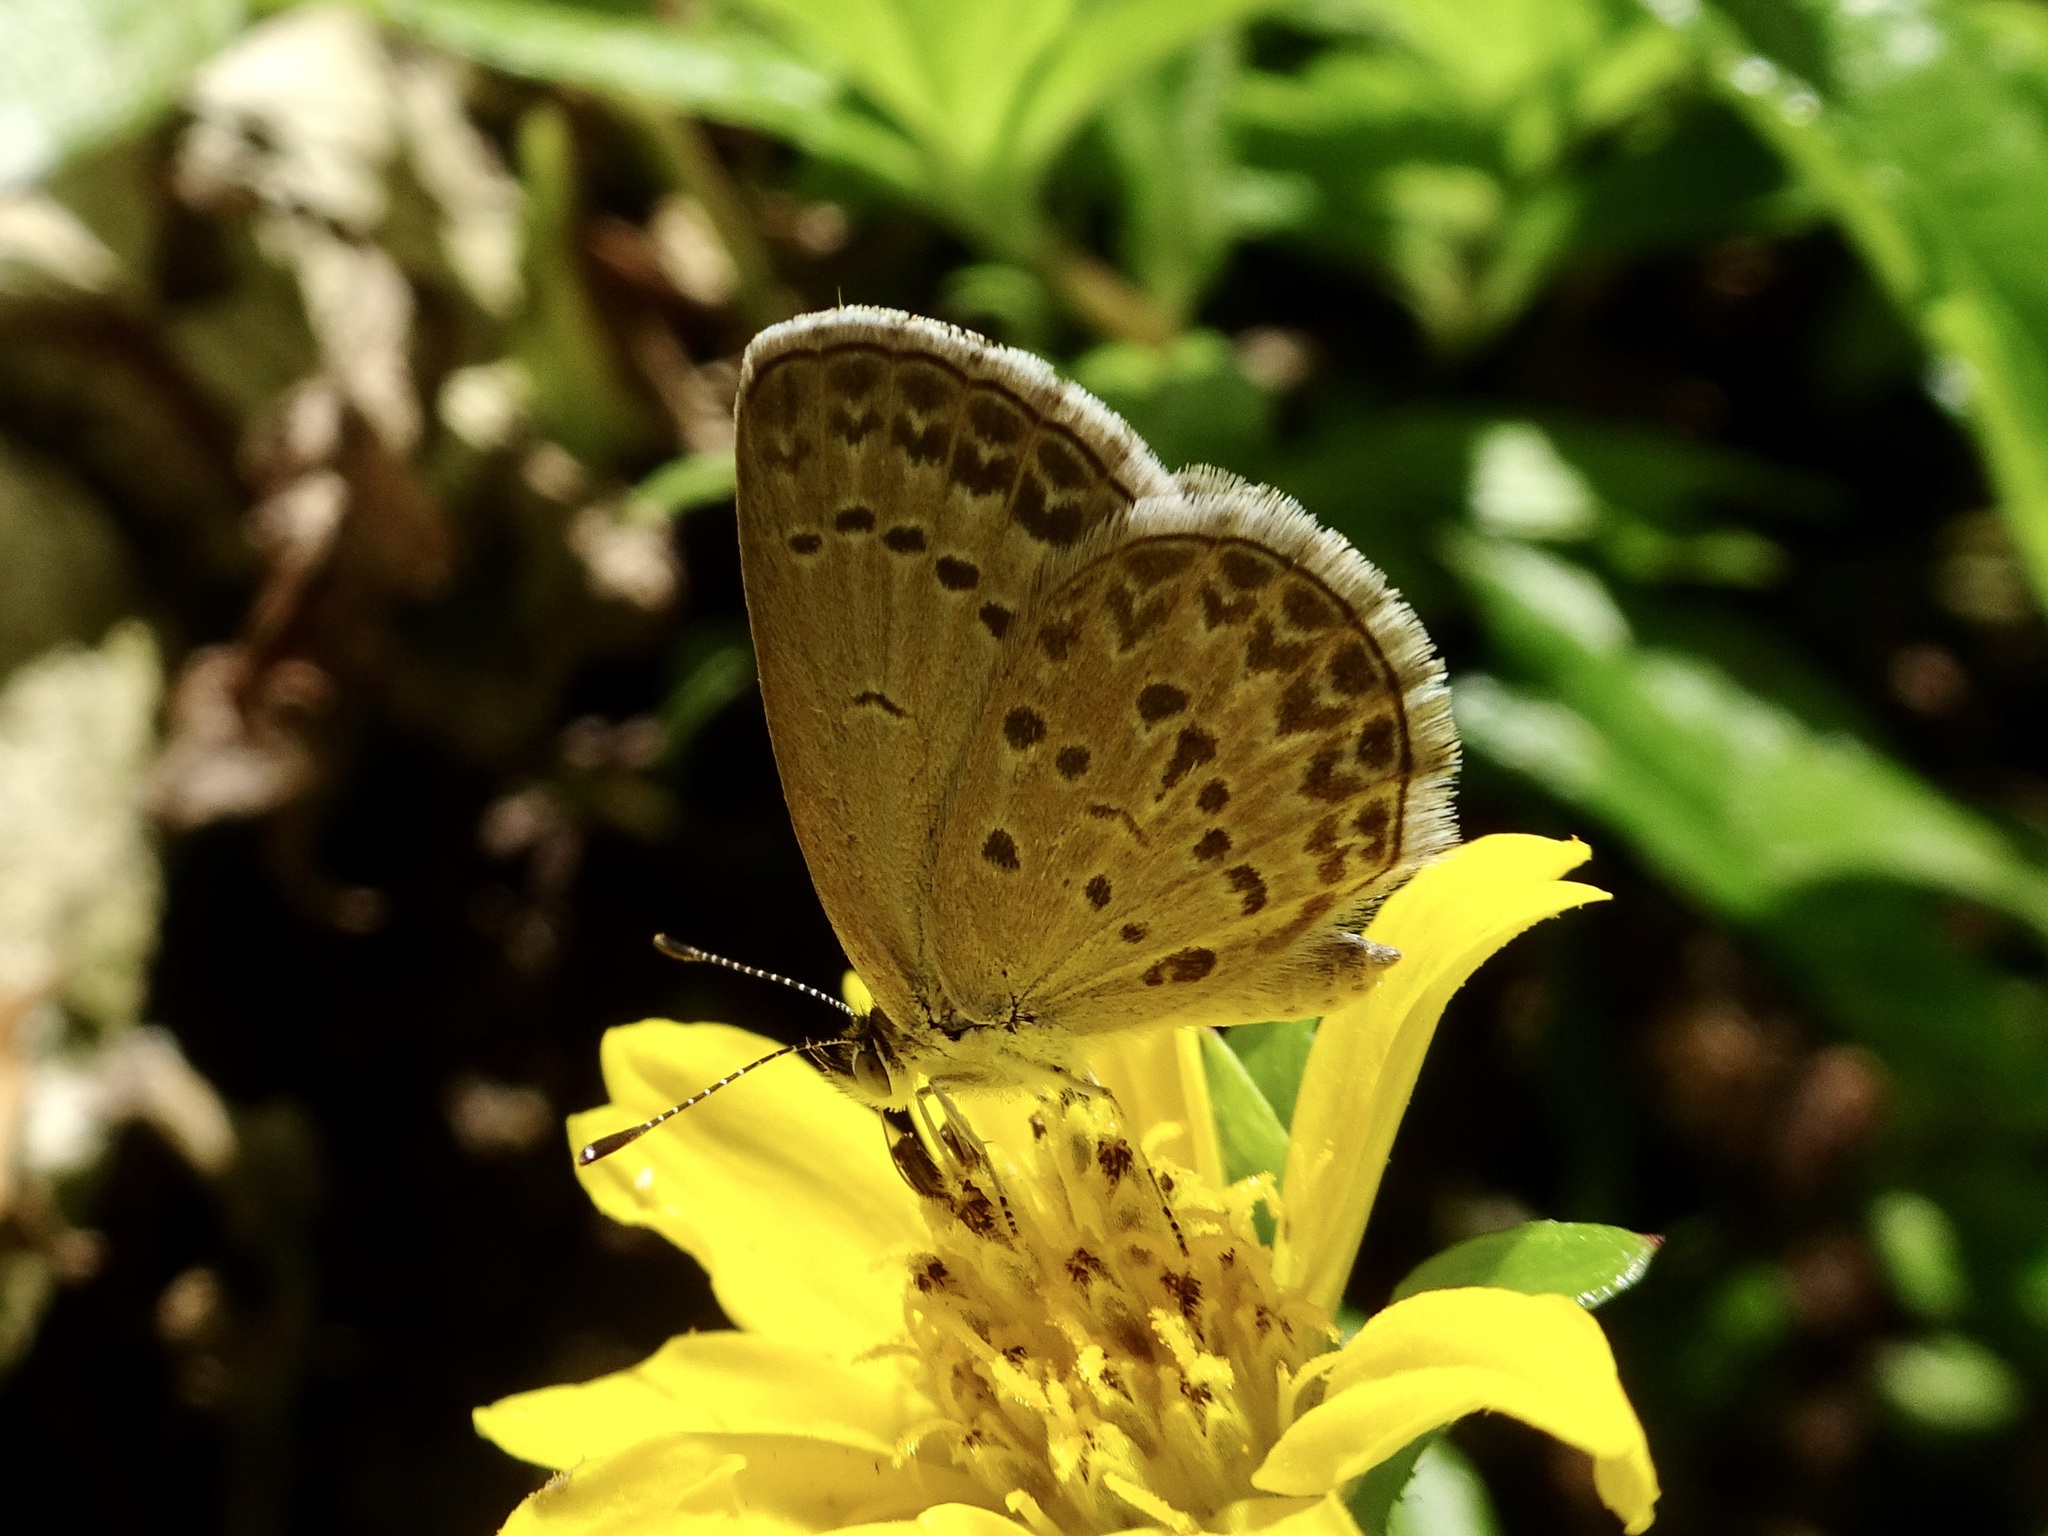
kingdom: Animalia
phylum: Arthropoda
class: Insecta
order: Lepidoptera
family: Lycaenidae
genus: Zizina
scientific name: Zizina otis
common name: Lesser grass blue
